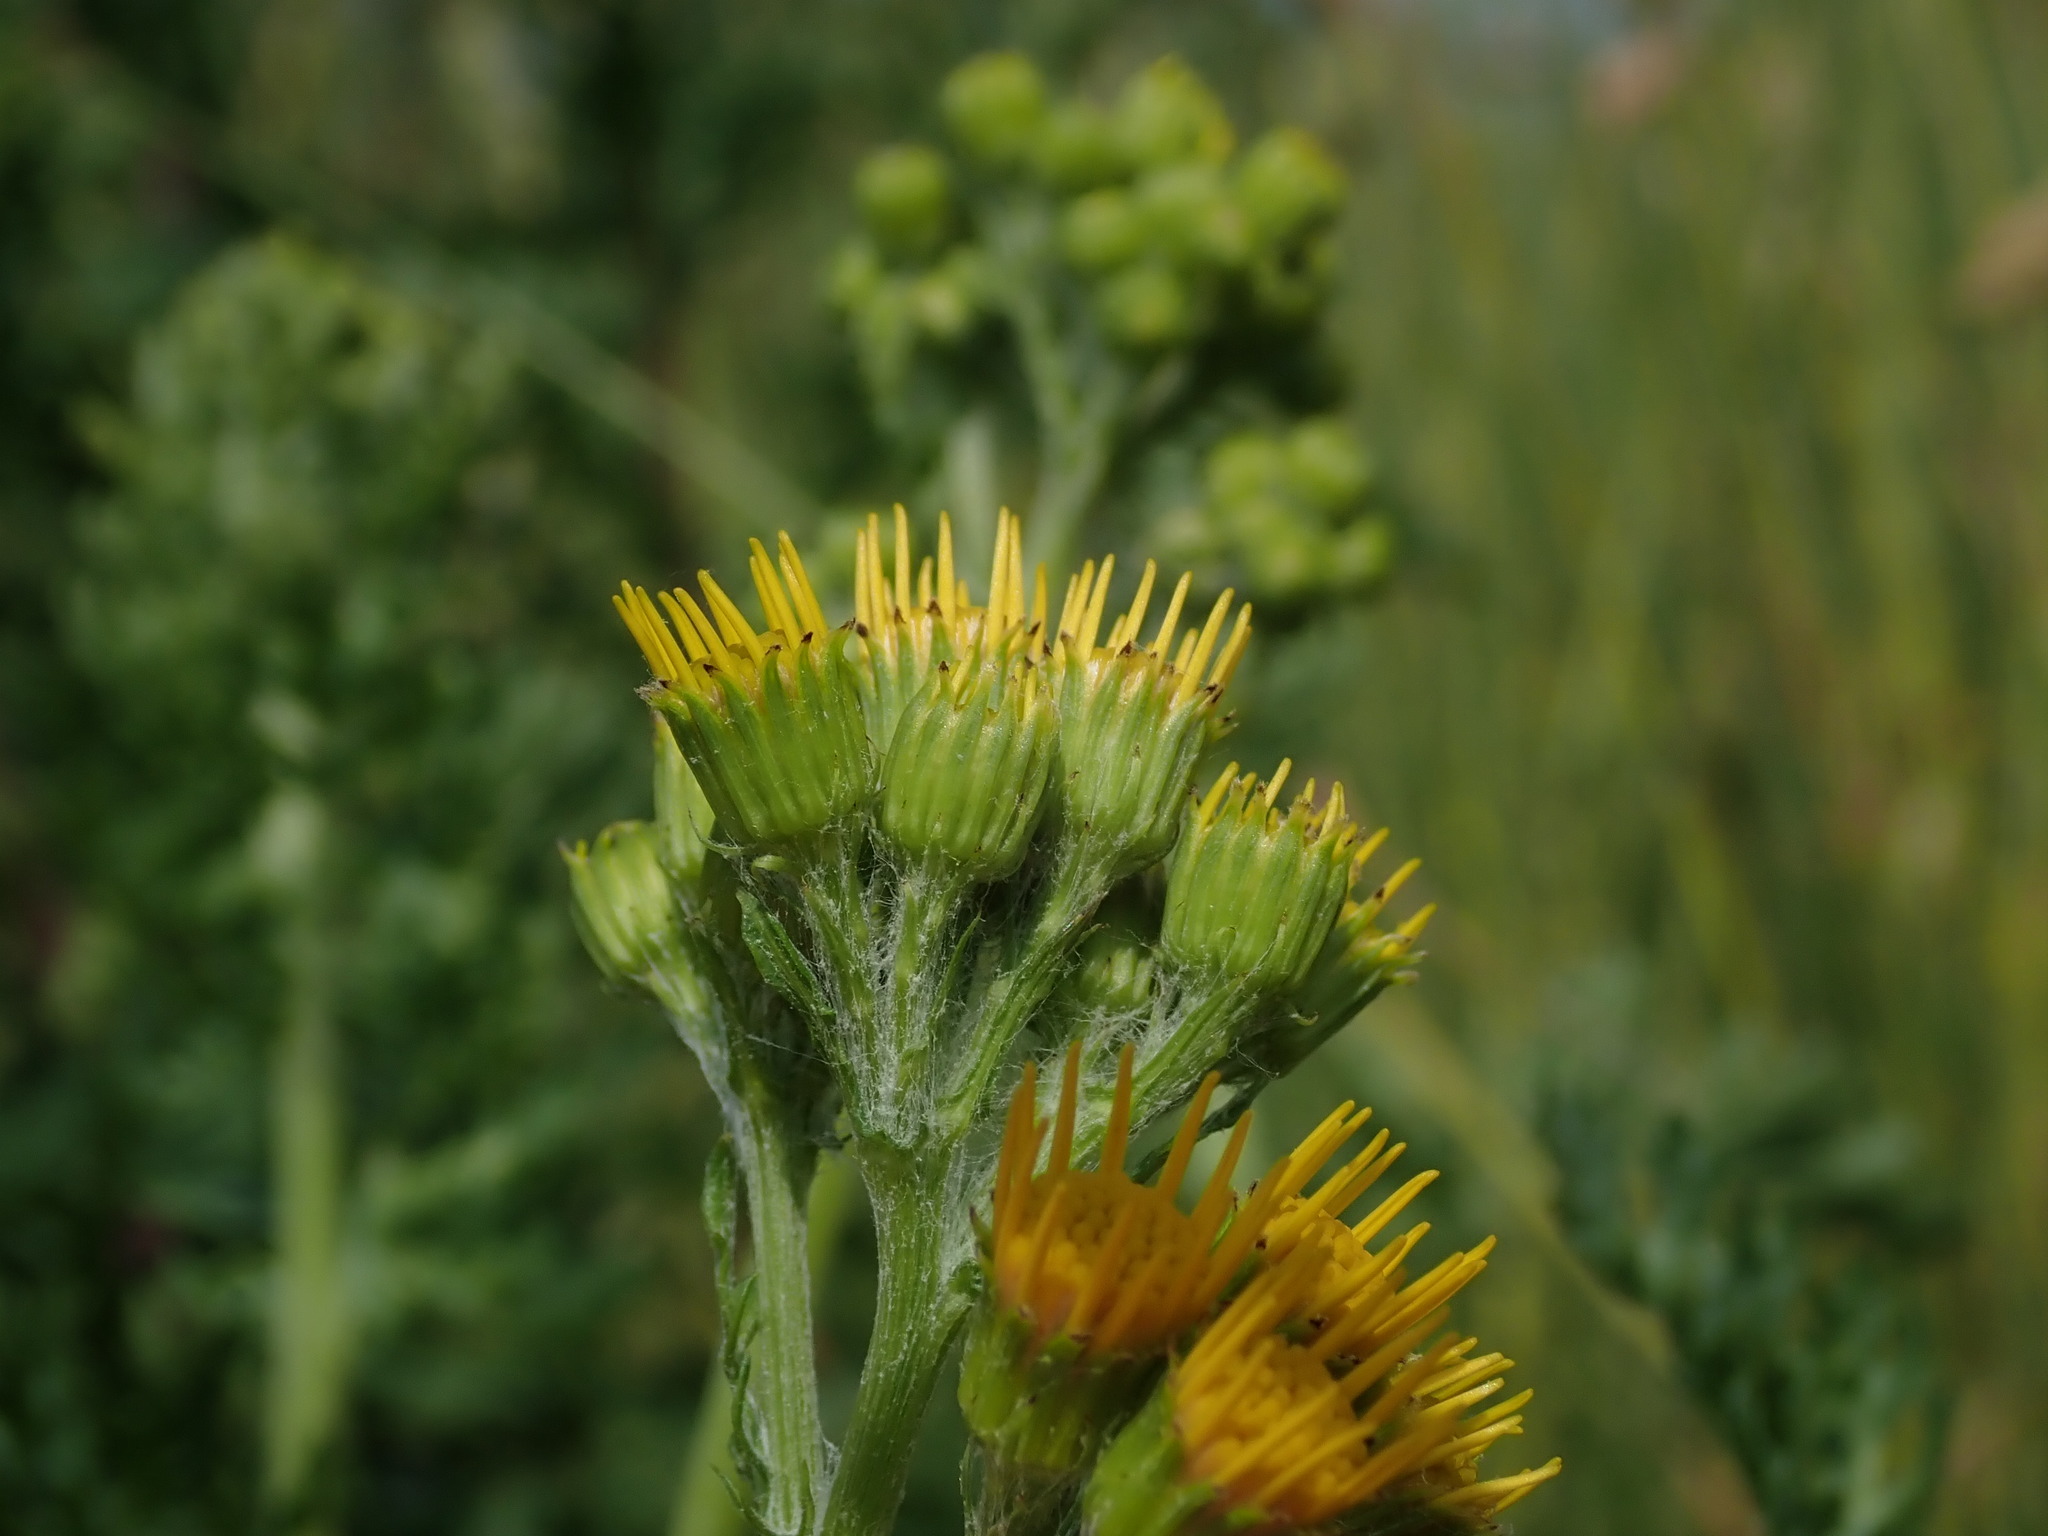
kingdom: Plantae
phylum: Tracheophyta
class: Magnoliopsida
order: Asterales
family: Asteraceae
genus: Jacobaea
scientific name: Jacobaea vulgaris
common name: Stinking willie
